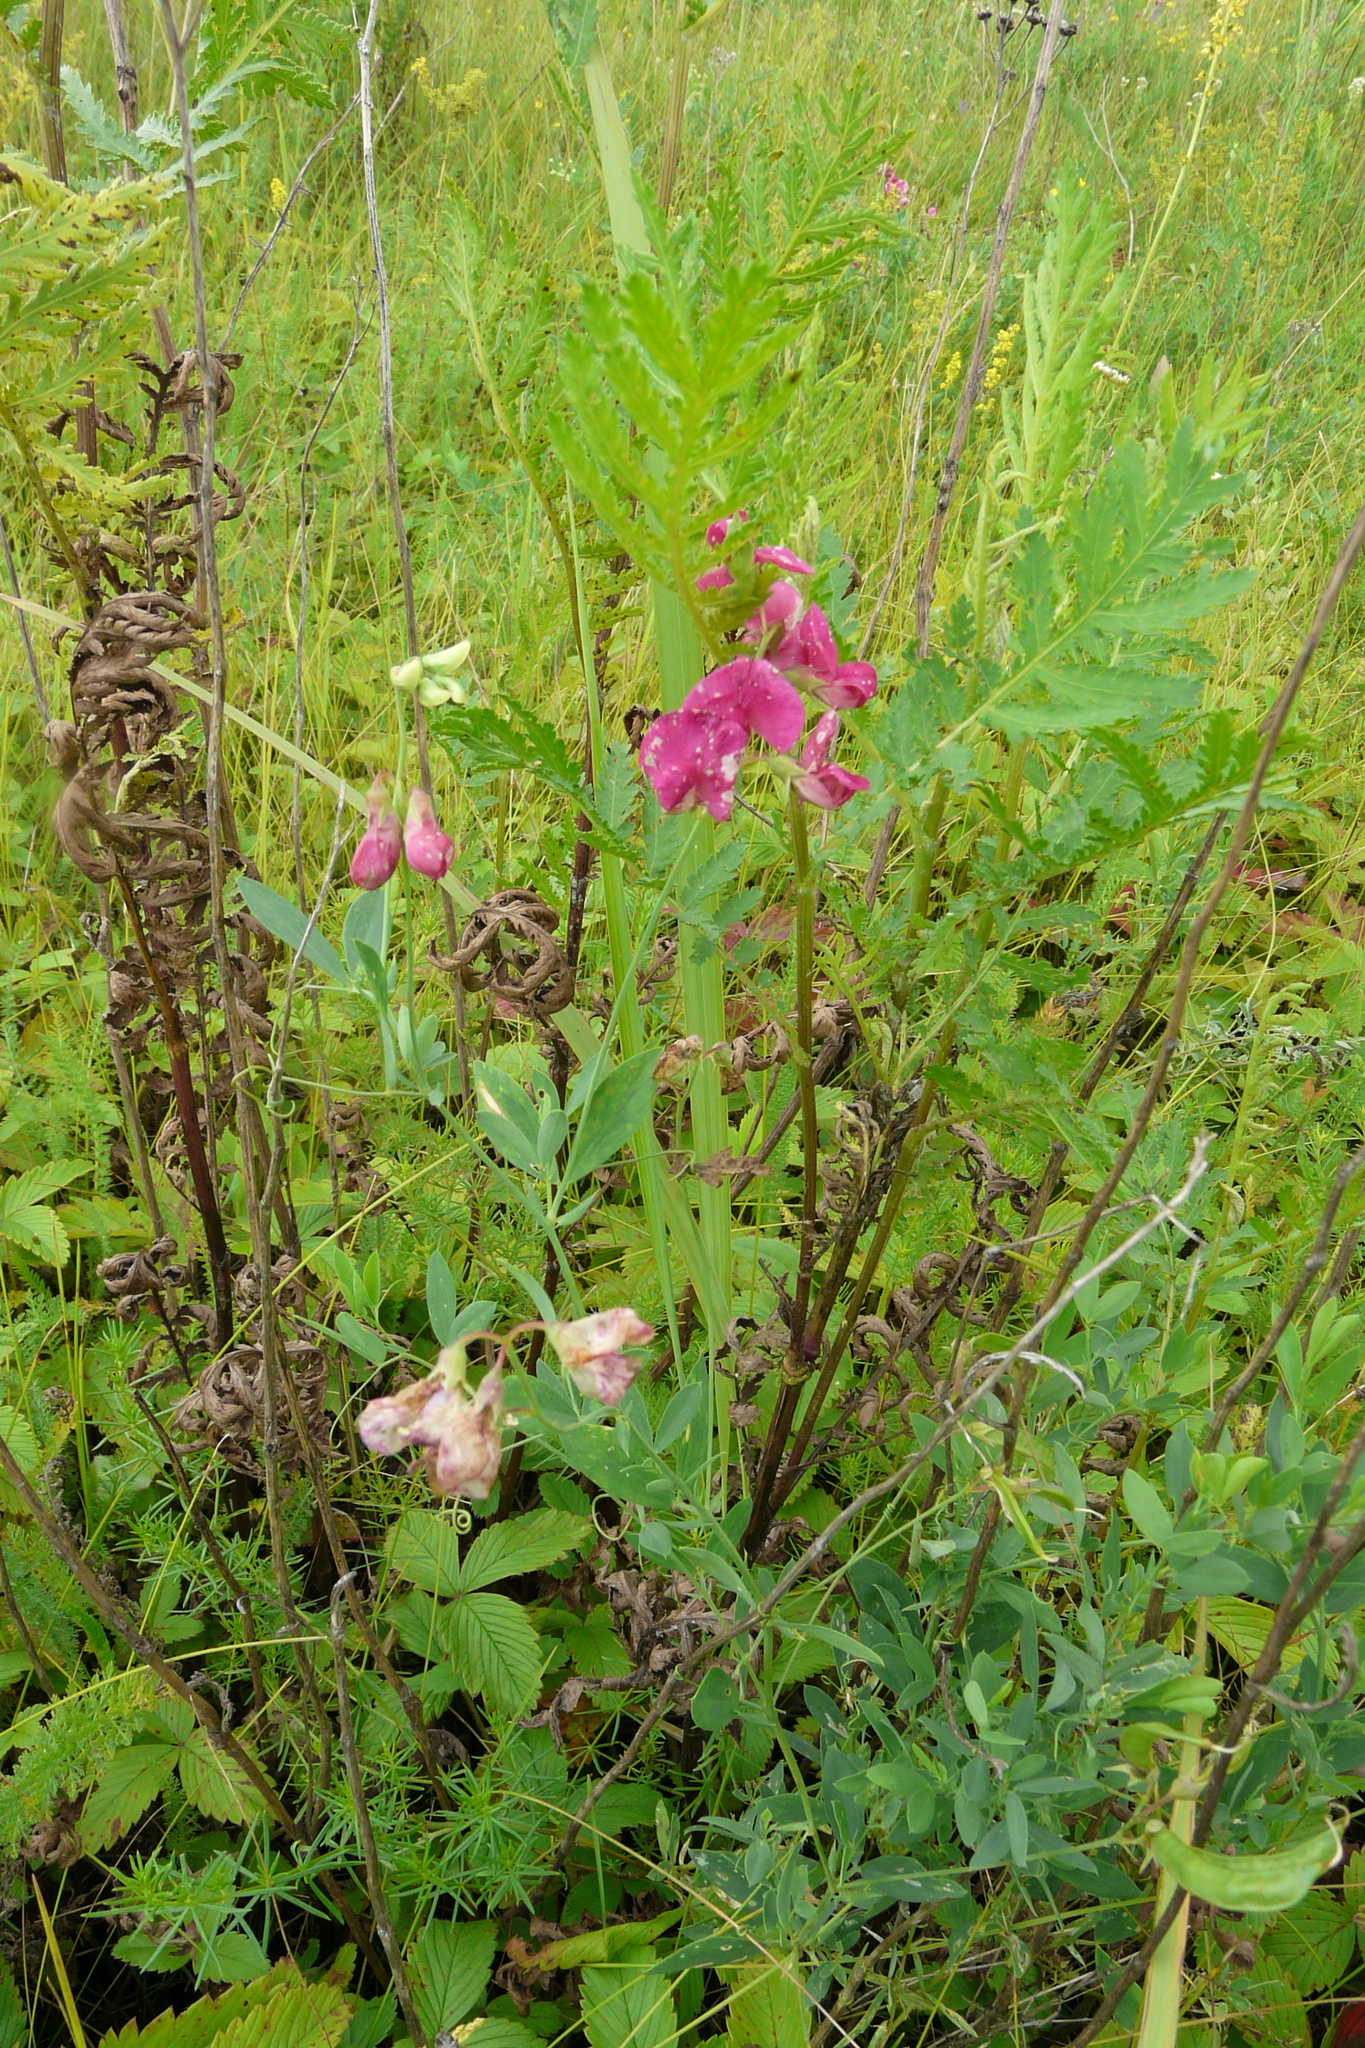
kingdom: Plantae
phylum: Tracheophyta
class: Magnoliopsida
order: Fabales
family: Fabaceae
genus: Lathyrus
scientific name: Lathyrus tuberosus
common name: Tuberous pea
